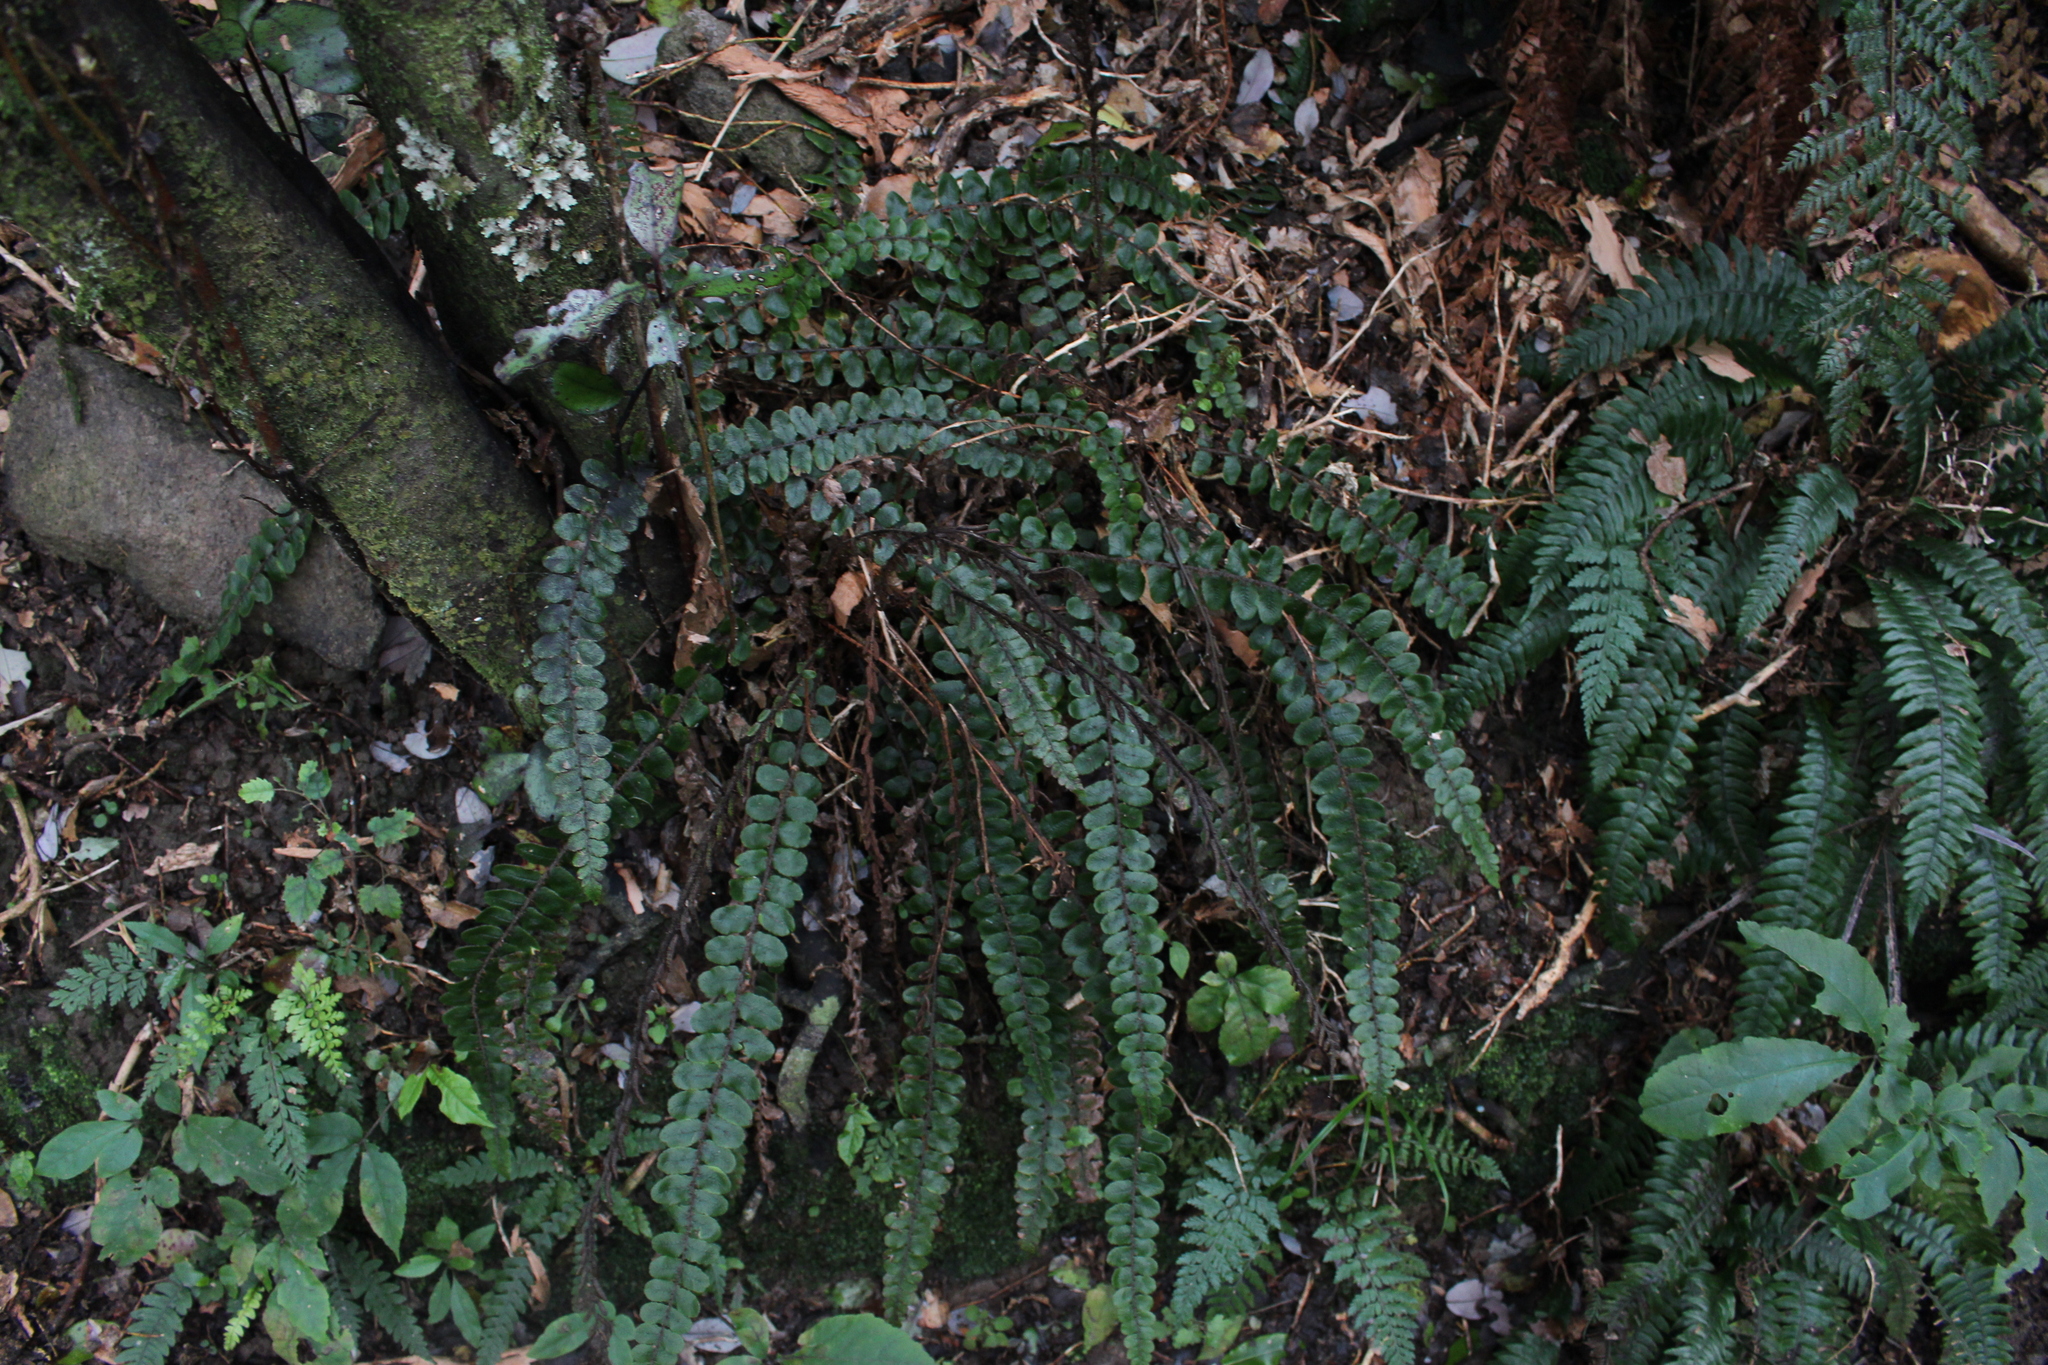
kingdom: Plantae
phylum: Tracheophyta
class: Polypodiopsida
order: Polypodiales
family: Blechnaceae
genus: Cranfillia
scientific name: Cranfillia fluviatilis
